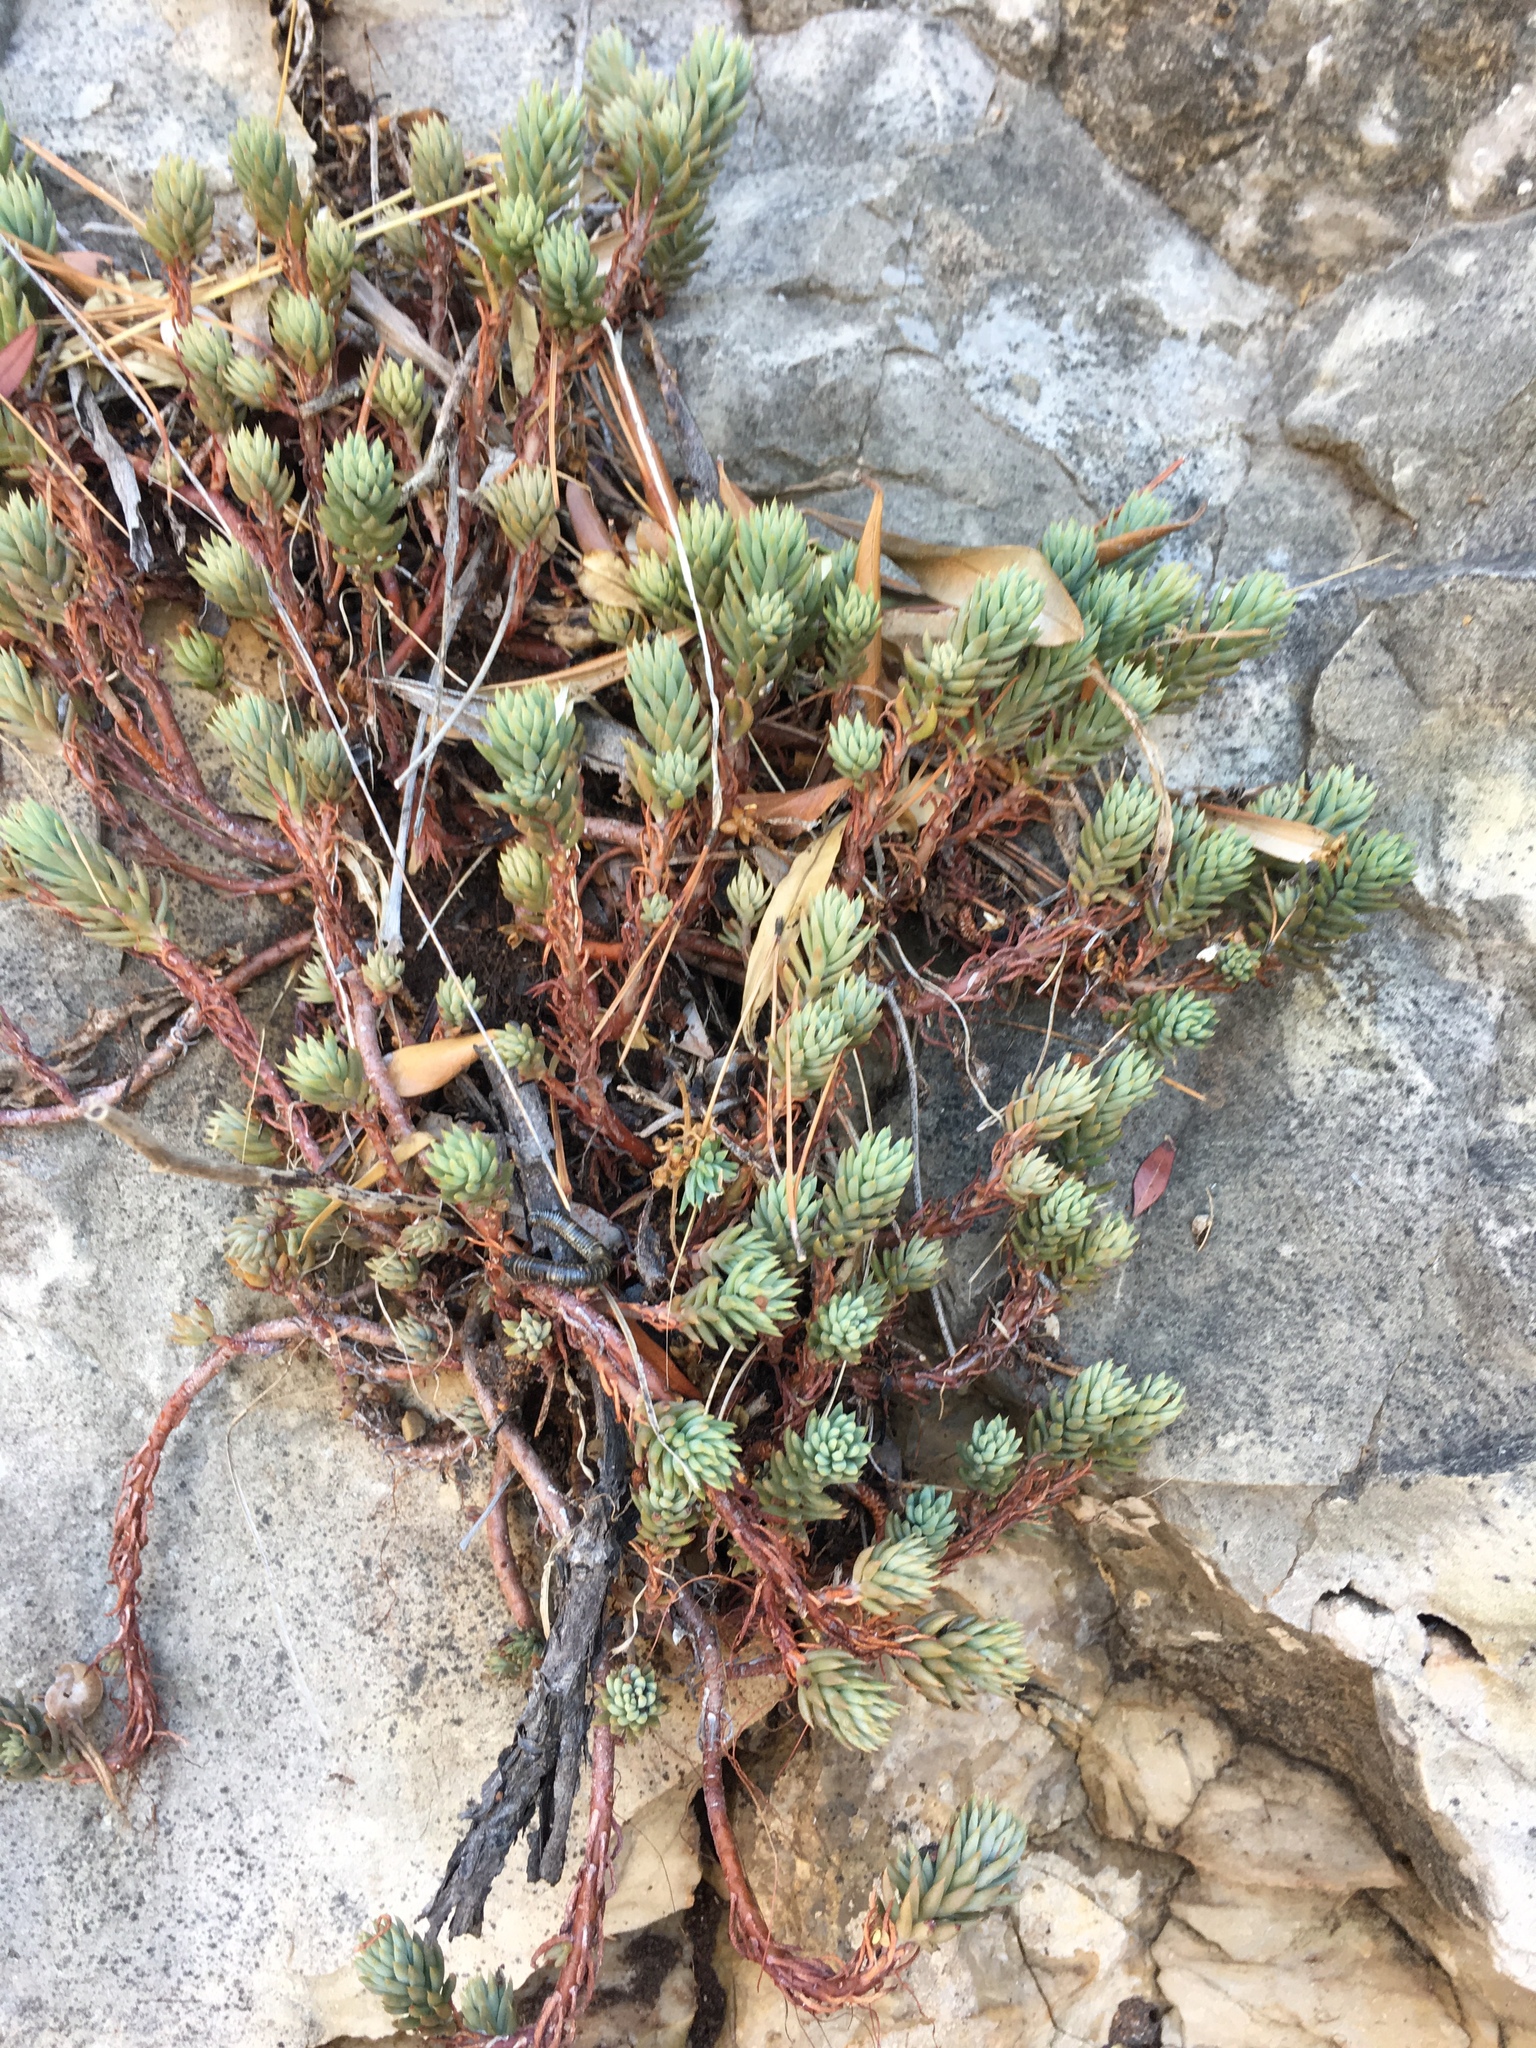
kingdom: Plantae
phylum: Tracheophyta
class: Magnoliopsida
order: Saxifragales
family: Crassulaceae
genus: Petrosedum
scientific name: Petrosedum rupestre
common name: Jenny's stonecrop
